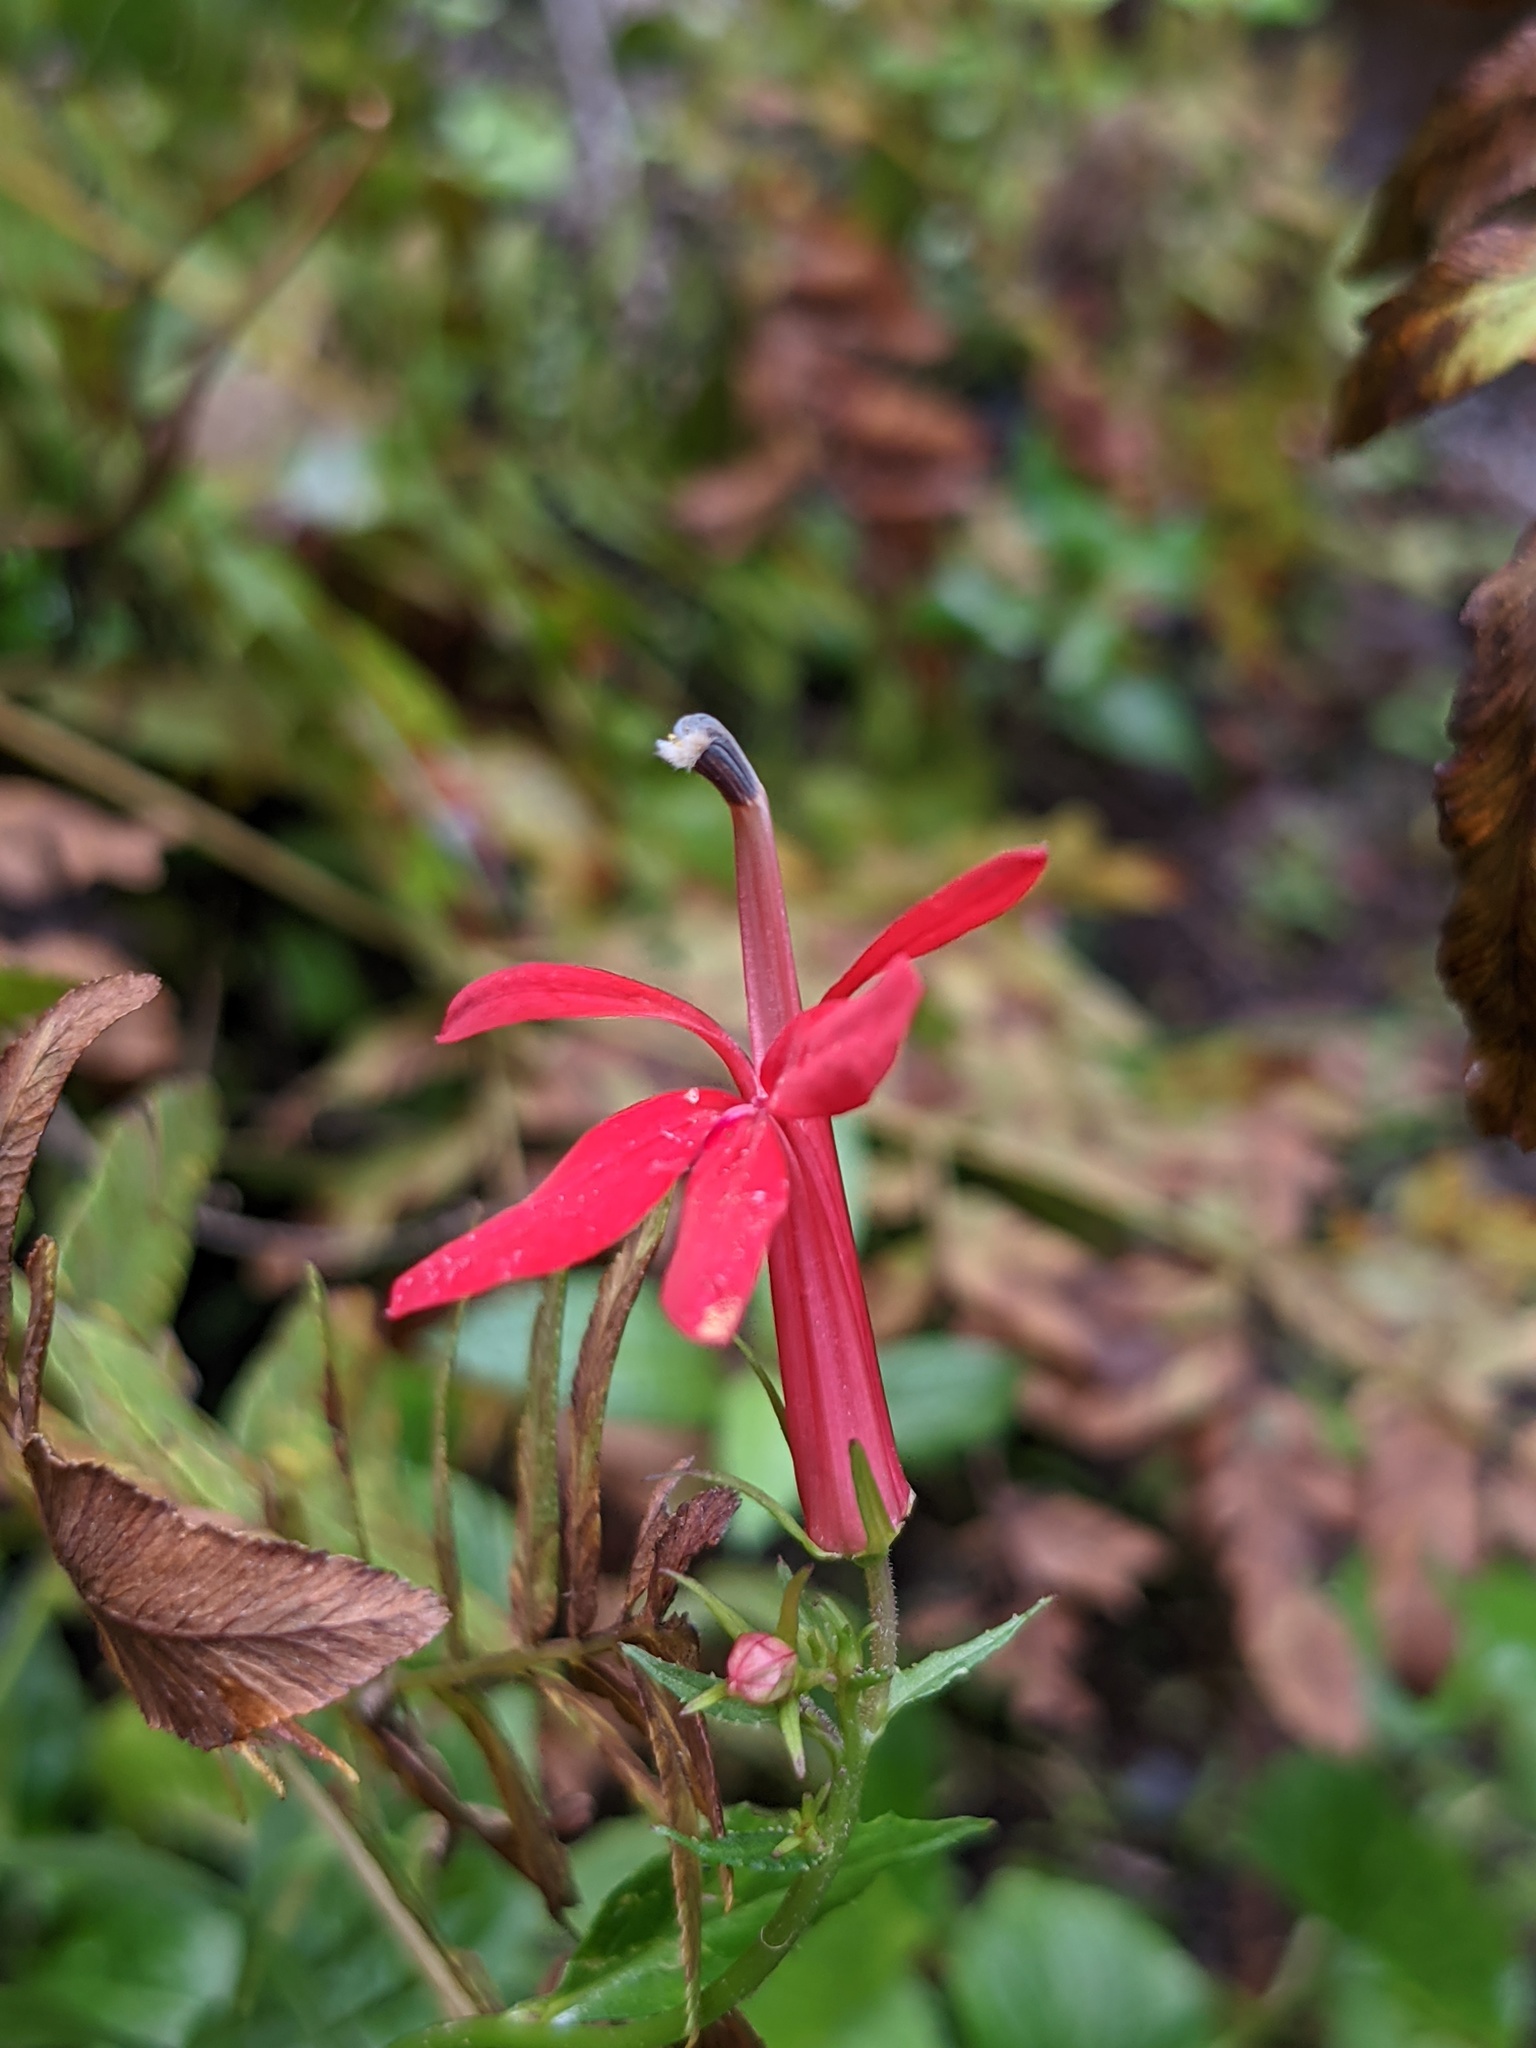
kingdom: Plantae
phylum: Tracheophyta
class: Magnoliopsida
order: Asterales
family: Campanulaceae
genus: Lobelia
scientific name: Lobelia cardinalis
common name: Cardinal flower
